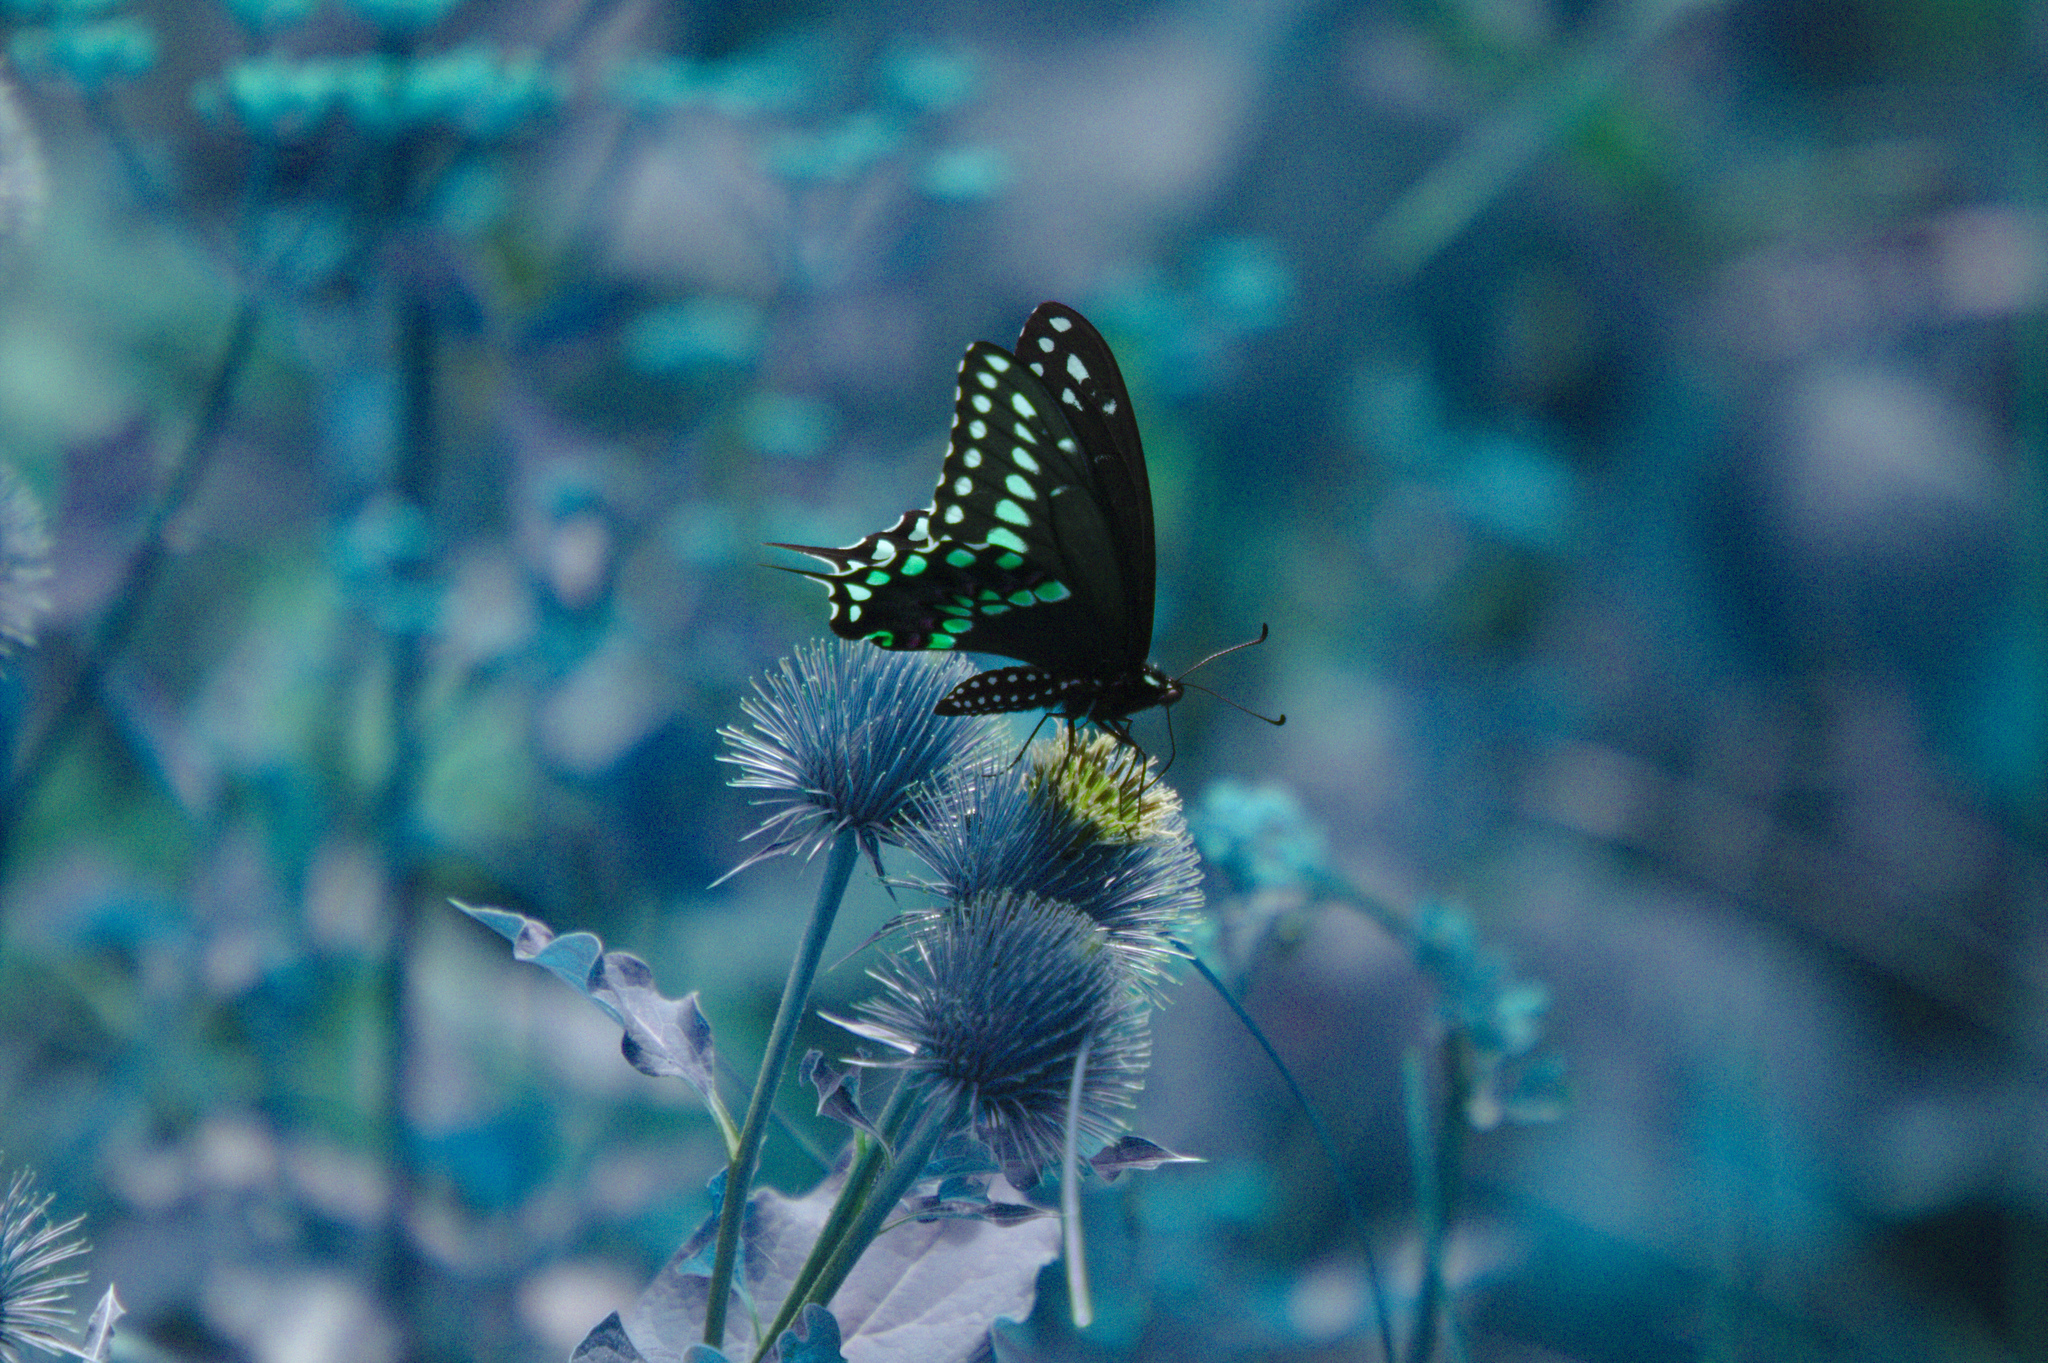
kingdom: Animalia
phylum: Arthropoda
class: Insecta
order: Lepidoptera
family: Papilionidae
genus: Papilio
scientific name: Papilio polyxenes
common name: Black swallowtail
